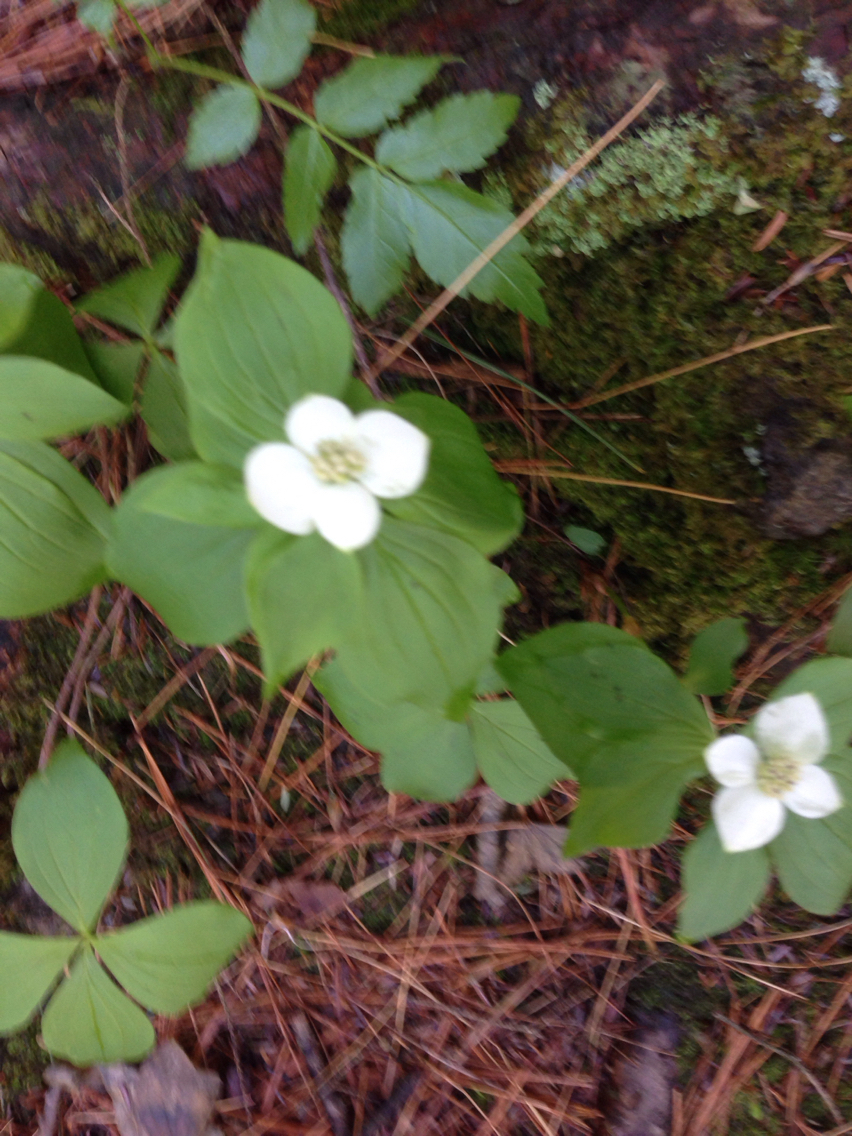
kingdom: Plantae
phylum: Tracheophyta
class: Magnoliopsida
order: Cornales
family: Cornaceae
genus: Cornus
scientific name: Cornus canadensis
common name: Creeping dogwood
